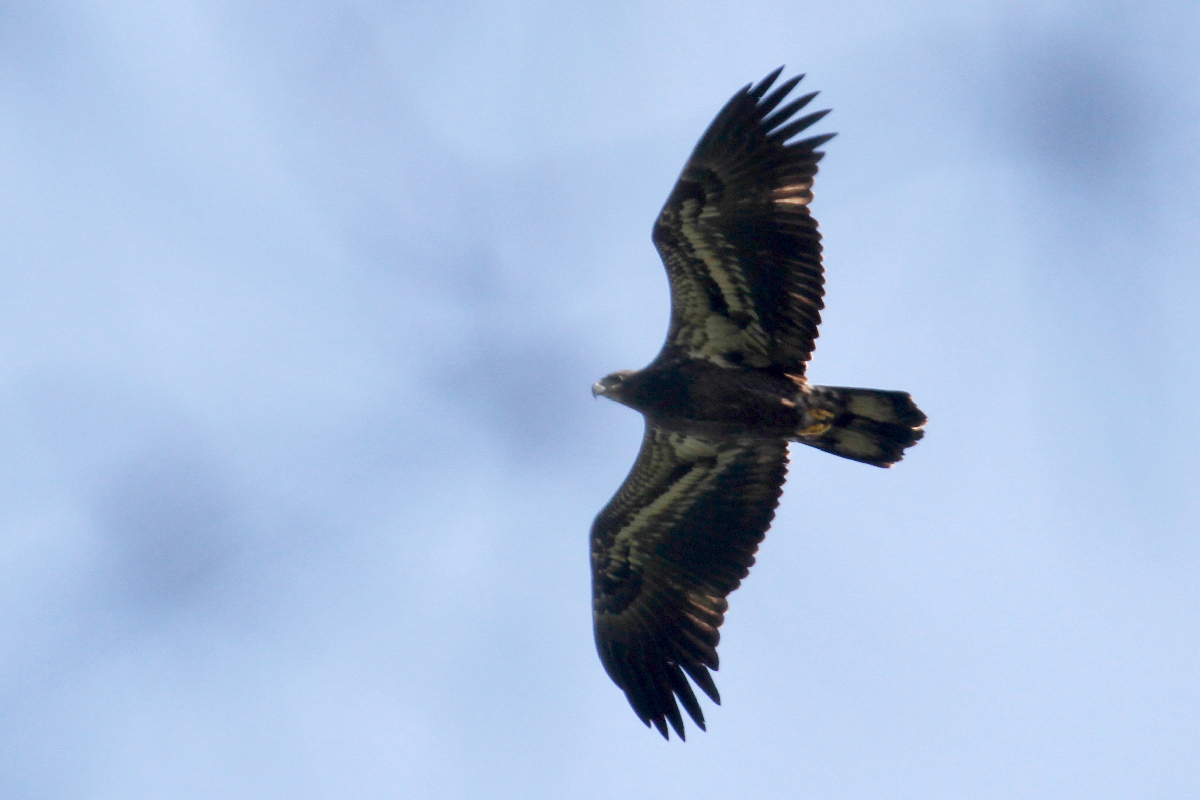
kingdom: Animalia
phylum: Chordata
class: Aves
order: Accipitriformes
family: Accipitridae
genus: Haliaeetus
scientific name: Haliaeetus leucocephalus
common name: Bald eagle
